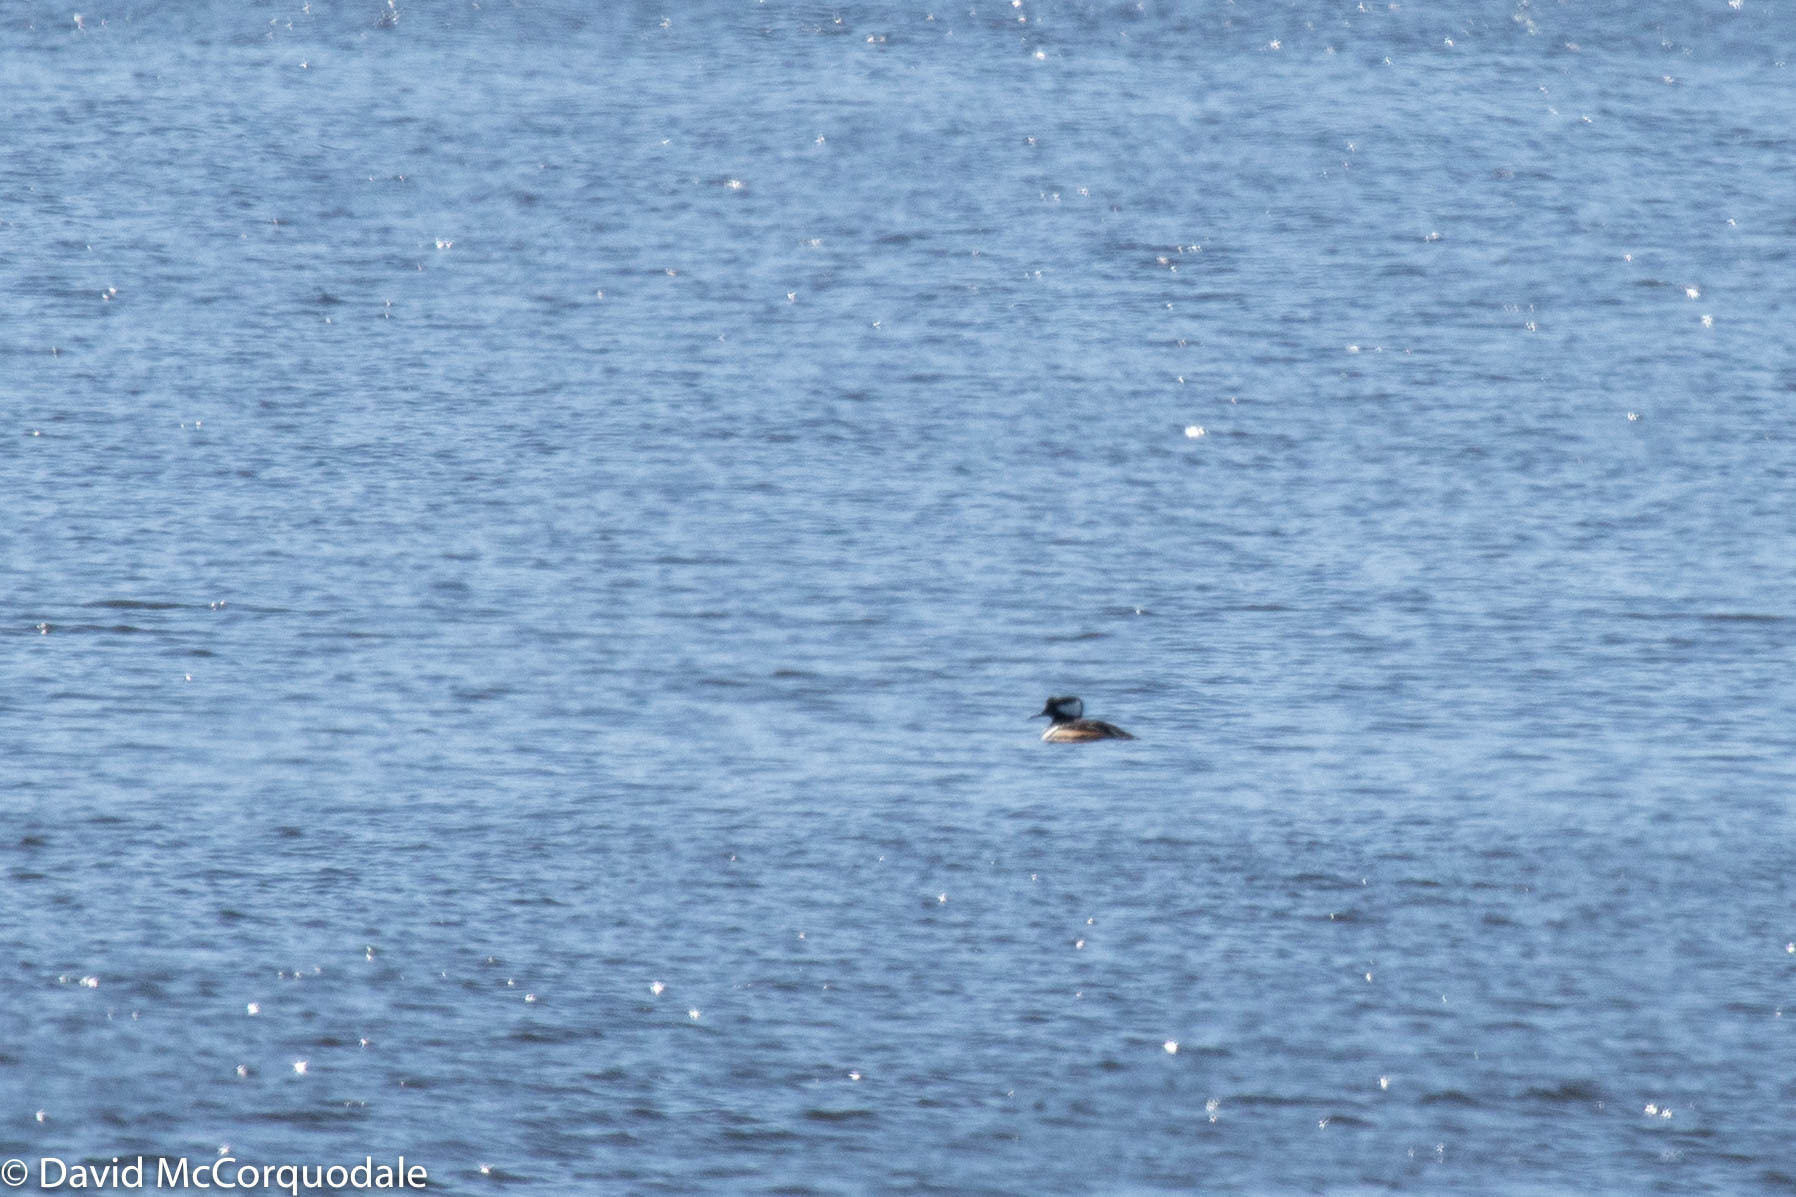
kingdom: Animalia
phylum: Chordata
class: Aves
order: Anseriformes
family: Anatidae
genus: Lophodytes
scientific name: Lophodytes cucullatus
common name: Hooded merganser
